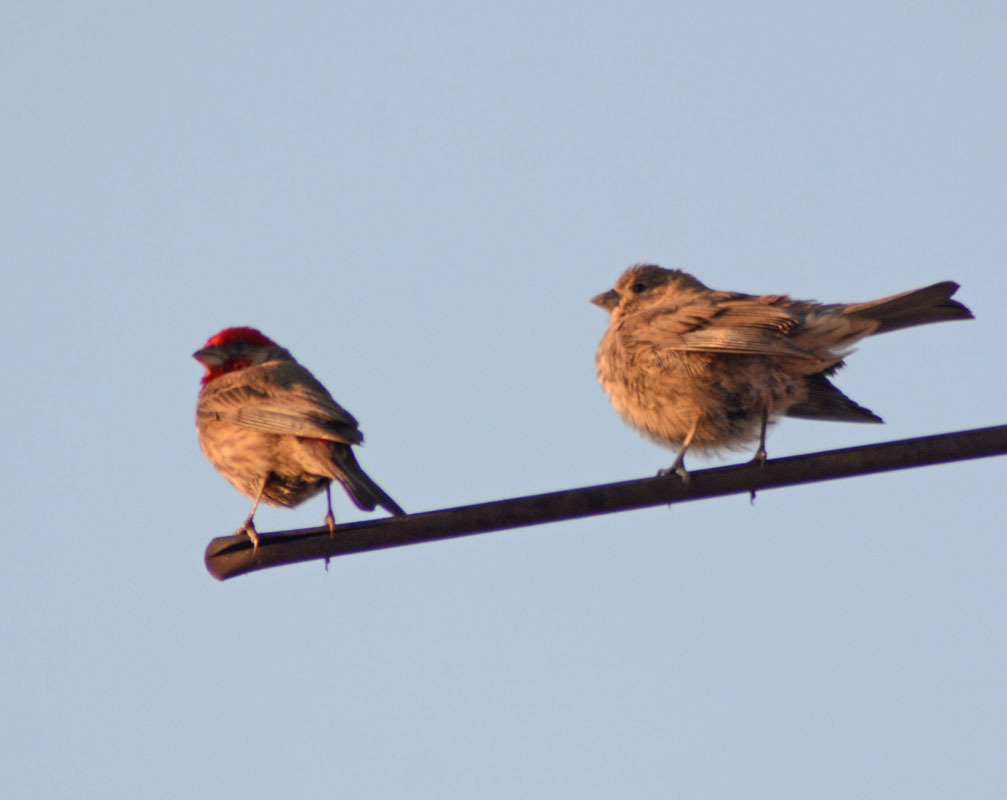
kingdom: Animalia
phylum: Chordata
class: Aves
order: Passeriformes
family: Fringillidae
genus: Haemorhous
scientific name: Haemorhous mexicanus
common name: House finch
